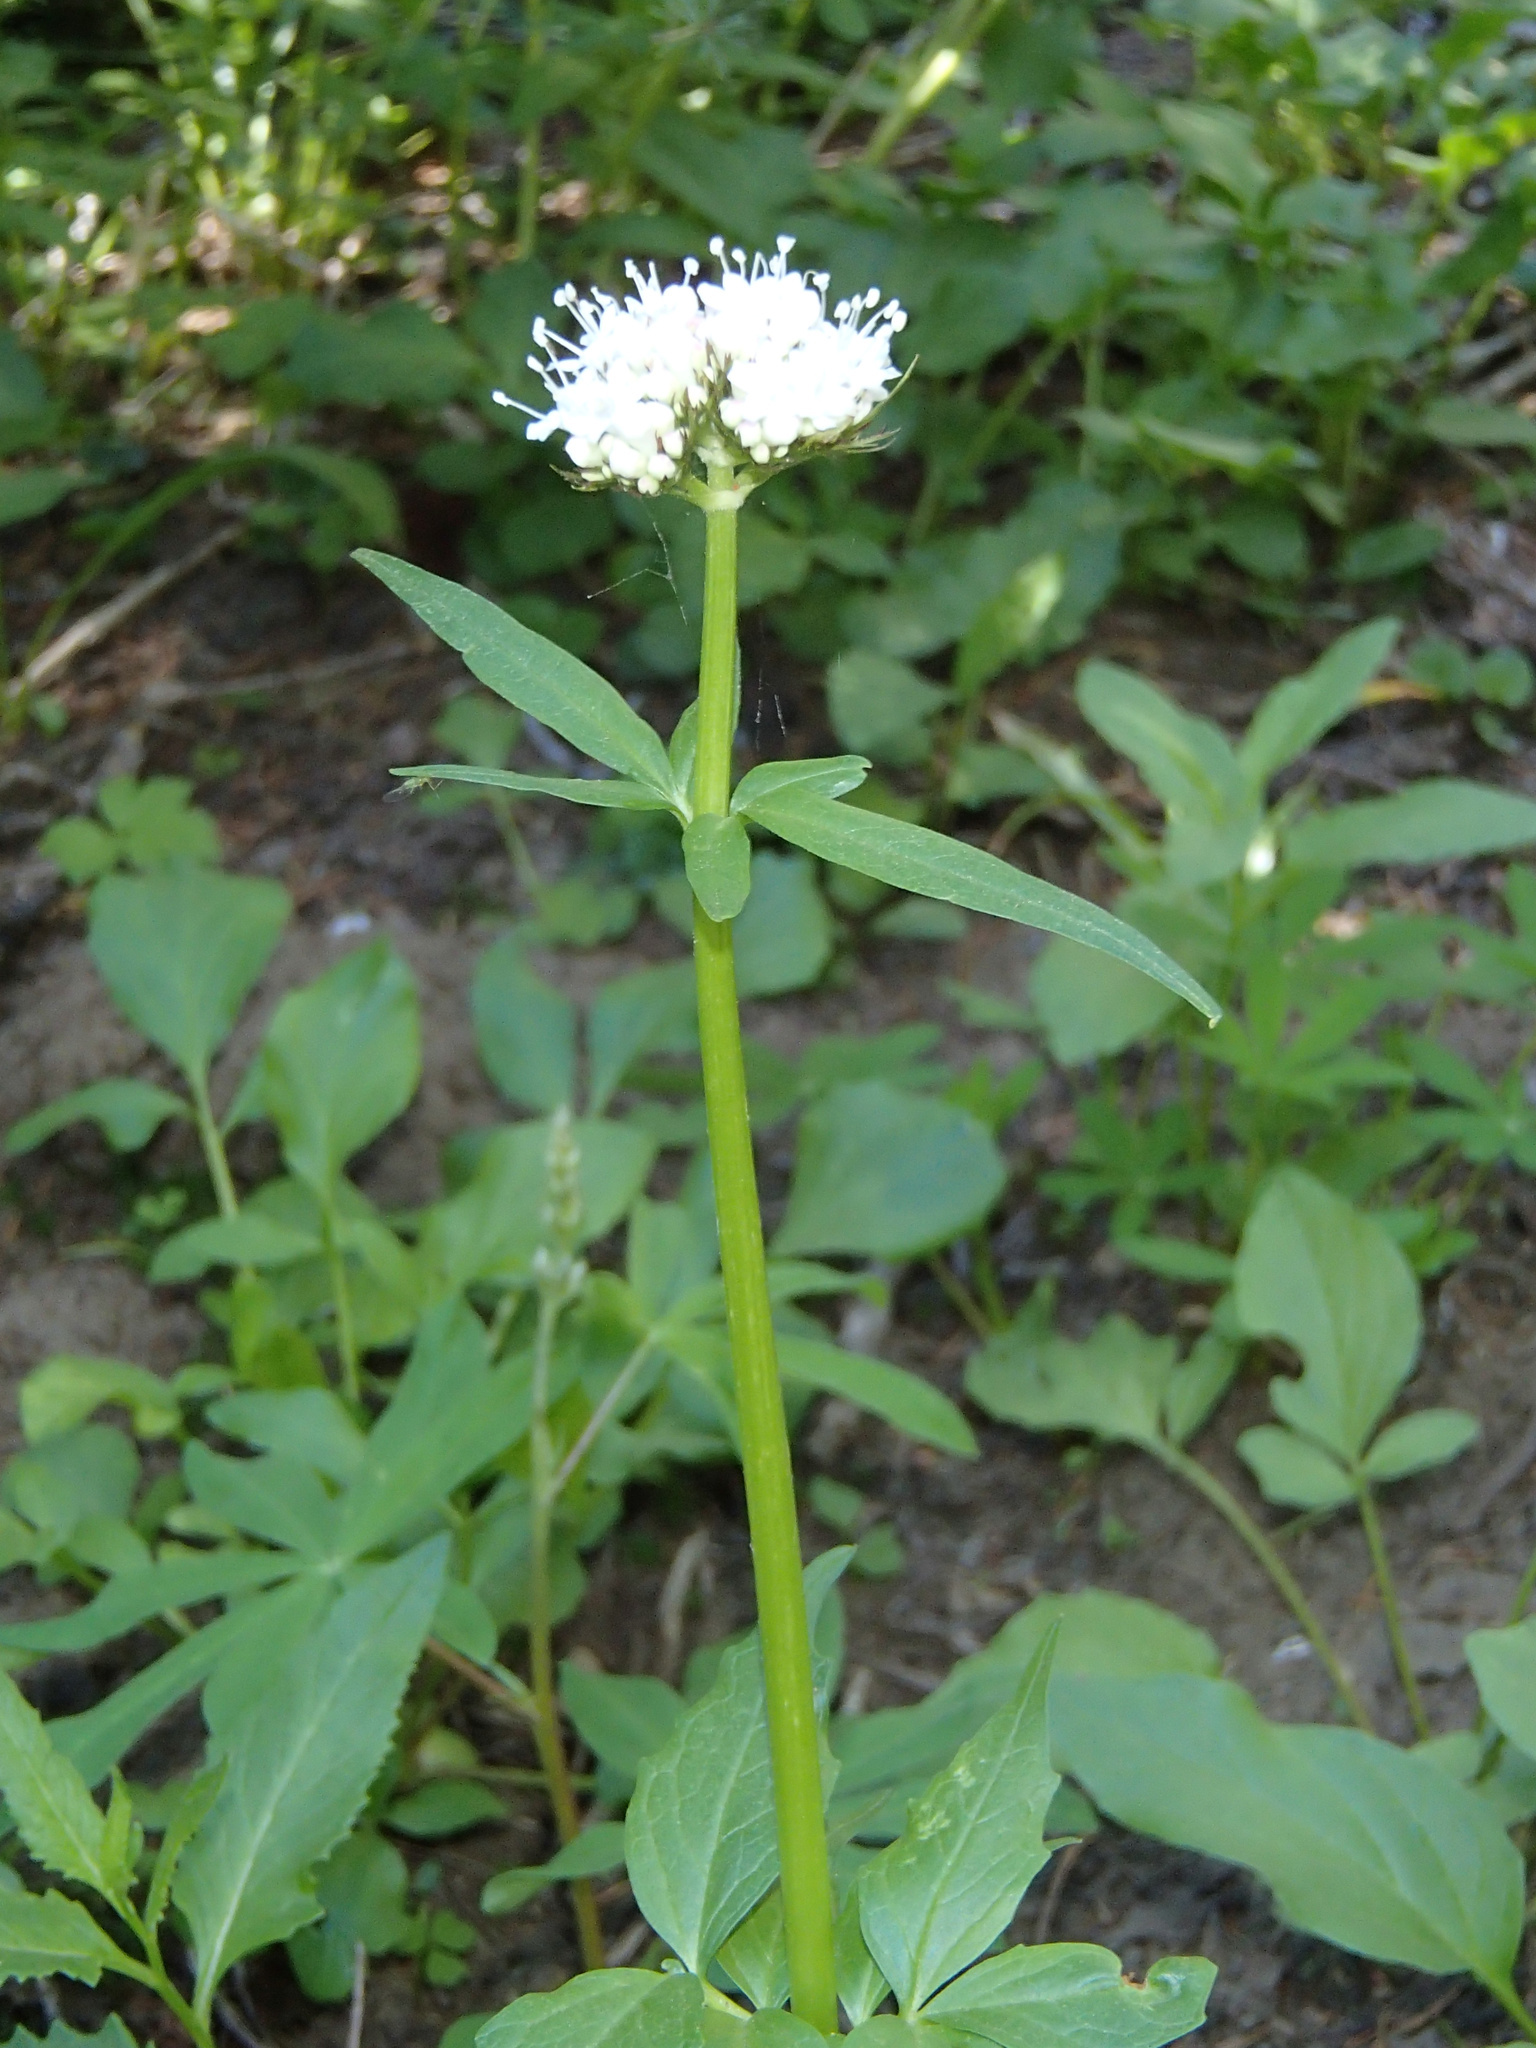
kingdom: Plantae
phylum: Tracheophyta
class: Magnoliopsida
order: Dipsacales
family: Caprifoliaceae
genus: Valeriana
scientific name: Valeriana sitchensis
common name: Pacific valerian
